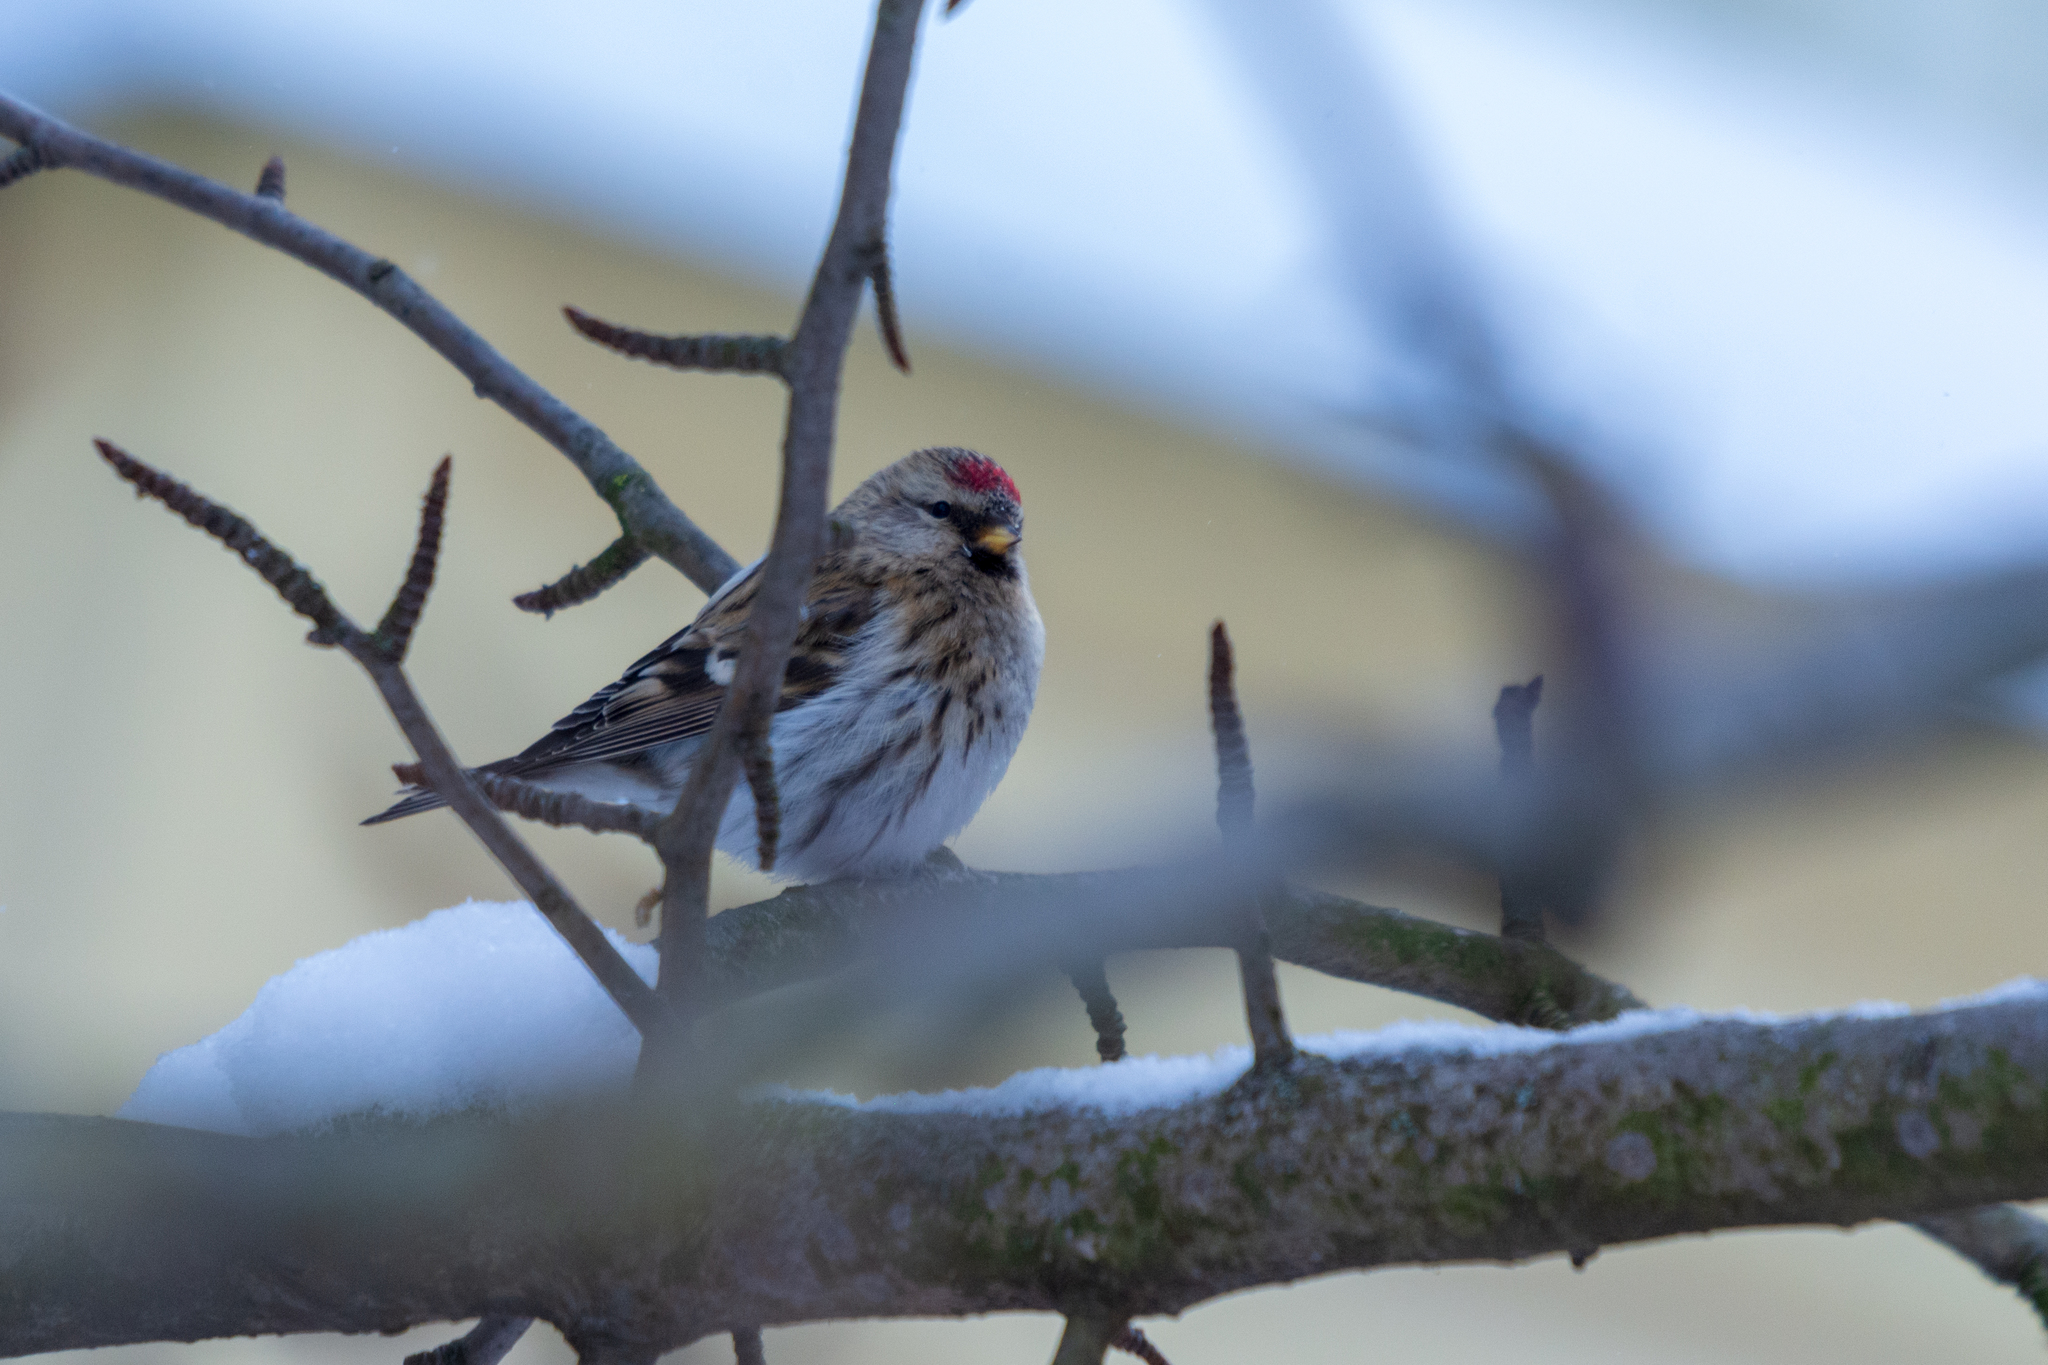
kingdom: Animalia
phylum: Chordata
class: Aves
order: Passeriformes
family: Fringillidae
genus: Acanthis
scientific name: Acanthis flammea
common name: Common redpoll
